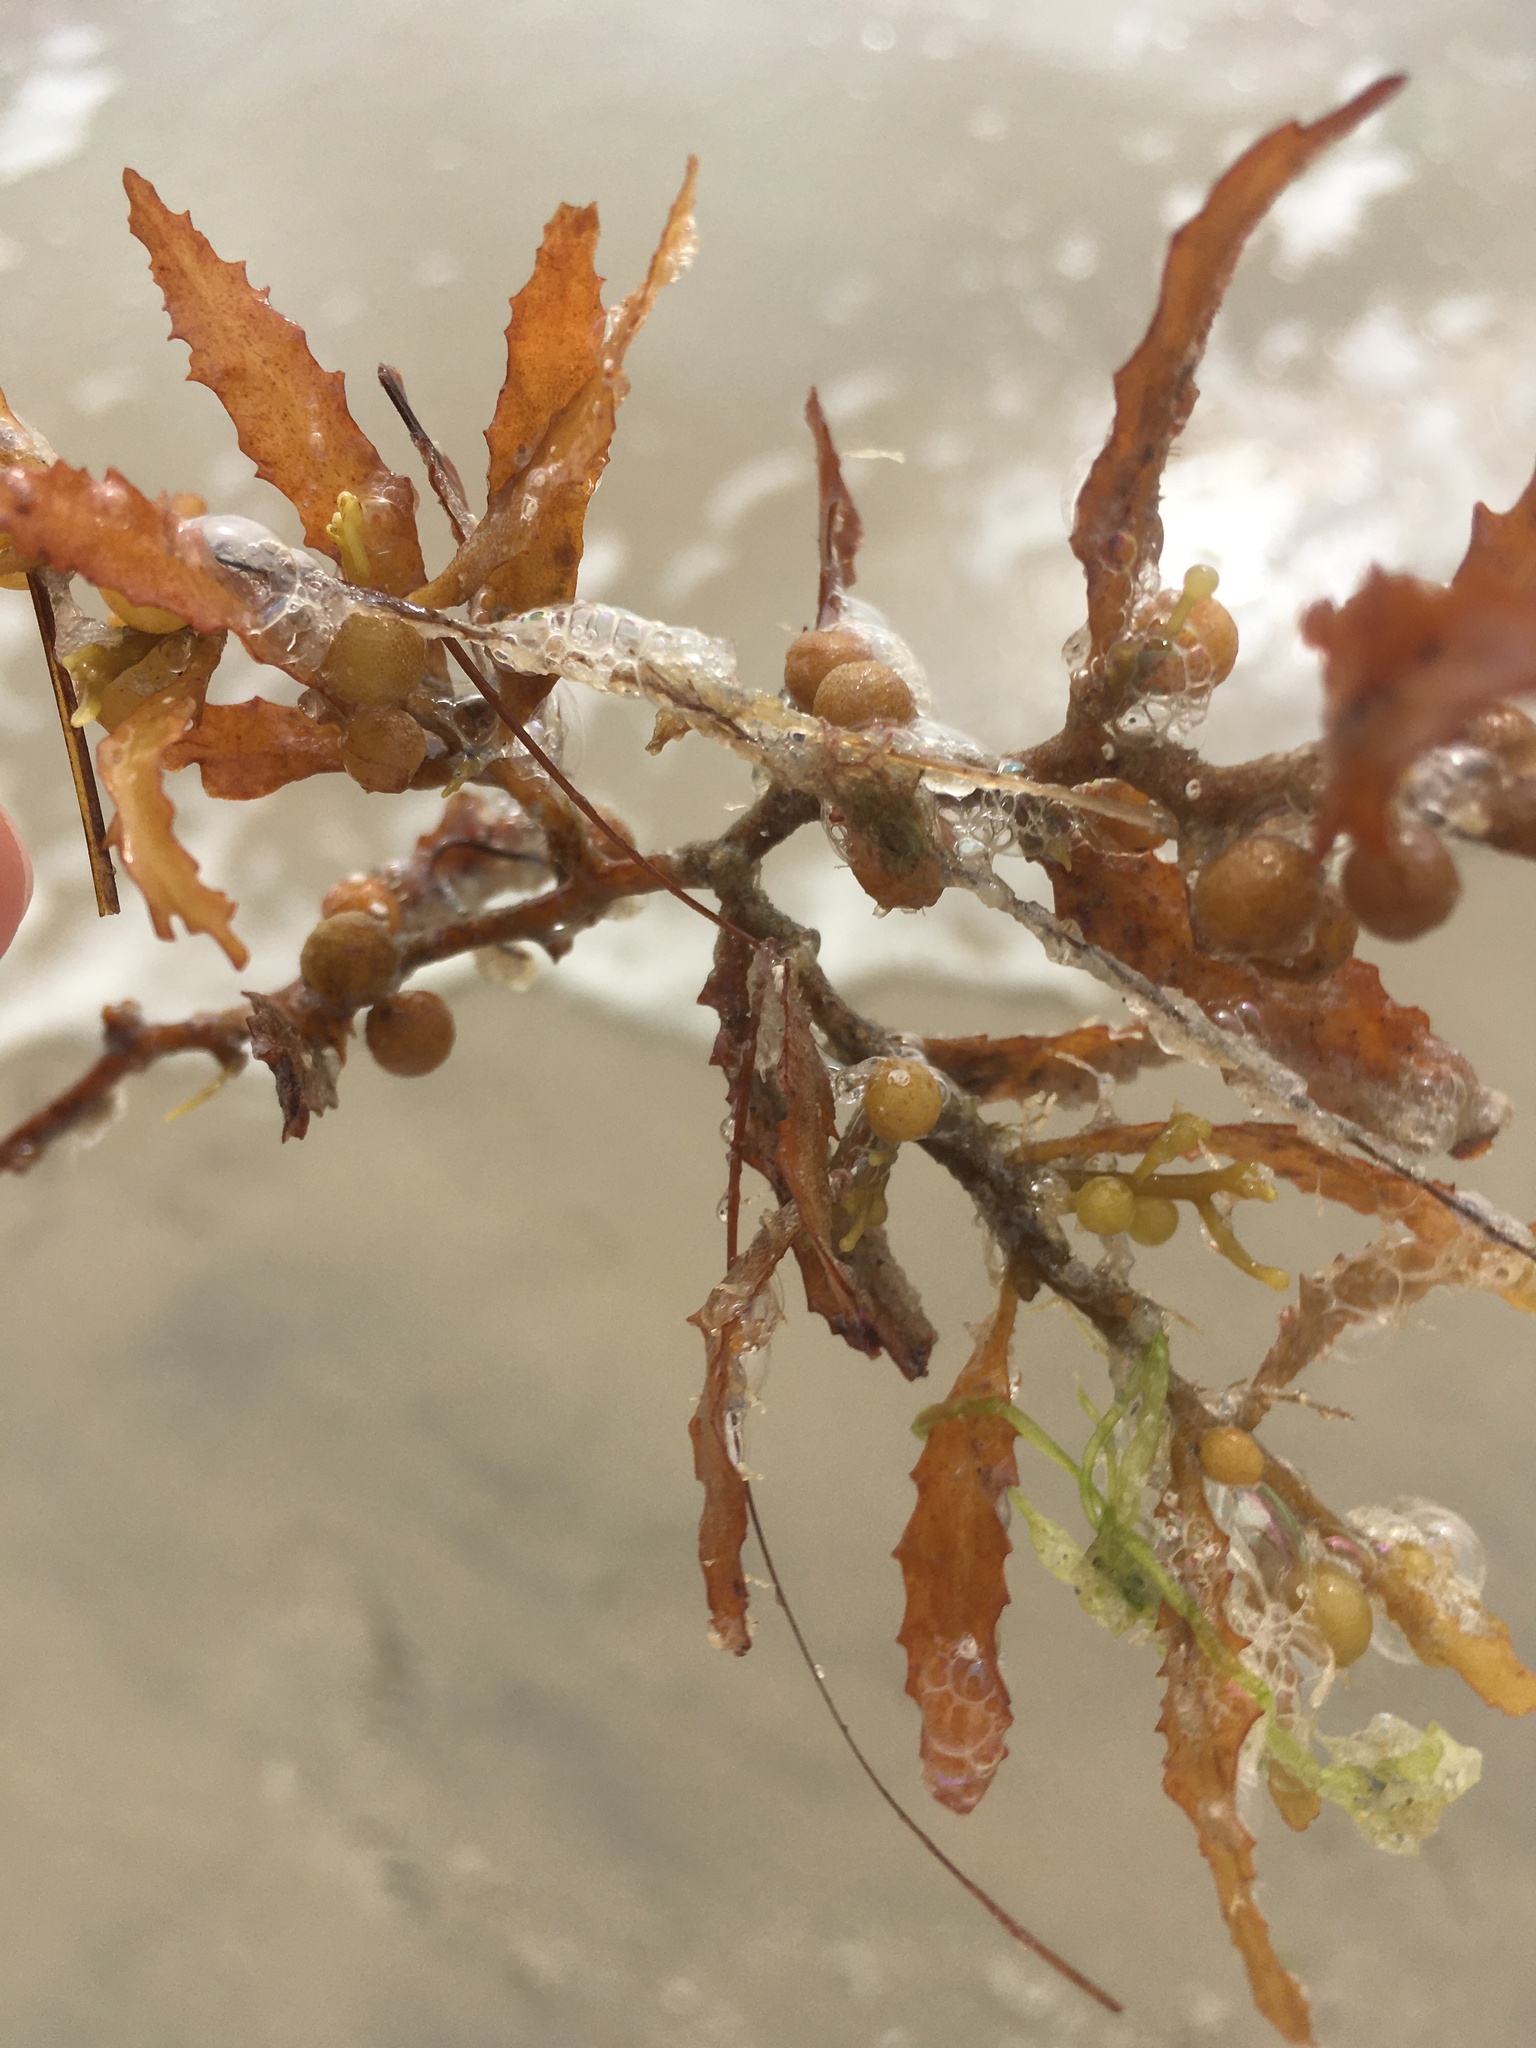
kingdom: Chromista
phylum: Ochrophyta
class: Phaeophyceae
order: Fucales
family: Sargassaceae
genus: Sargassum
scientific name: Sargassum fluitans
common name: Sargassum seaweed
